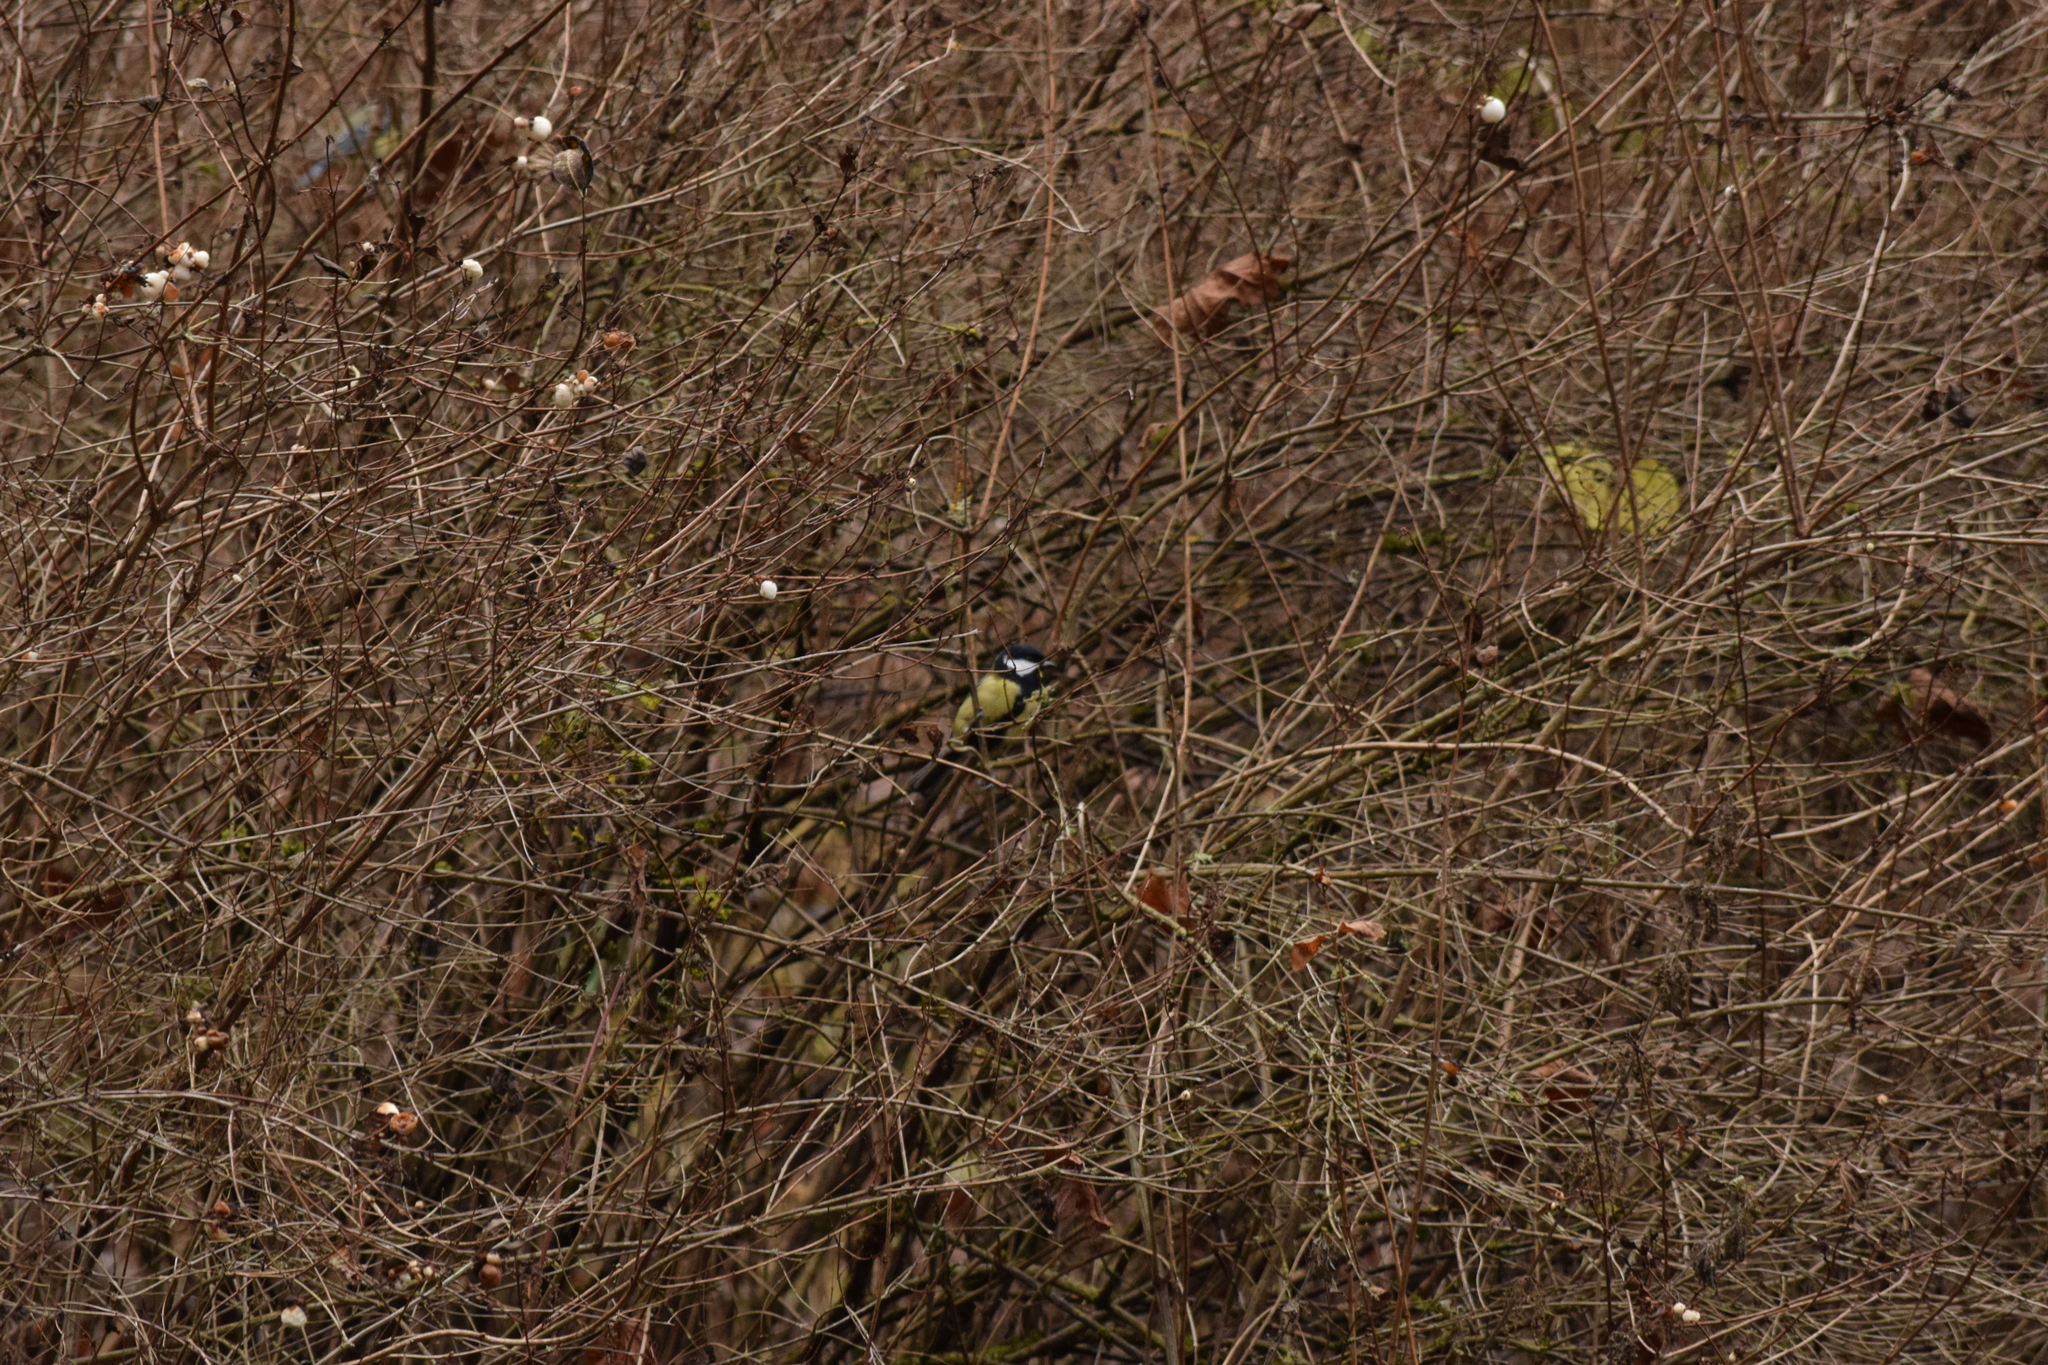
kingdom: Animalia
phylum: Chordata
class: Aves
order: Passeriformes
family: Paridae
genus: Parus
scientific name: Parus major
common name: Great tit
